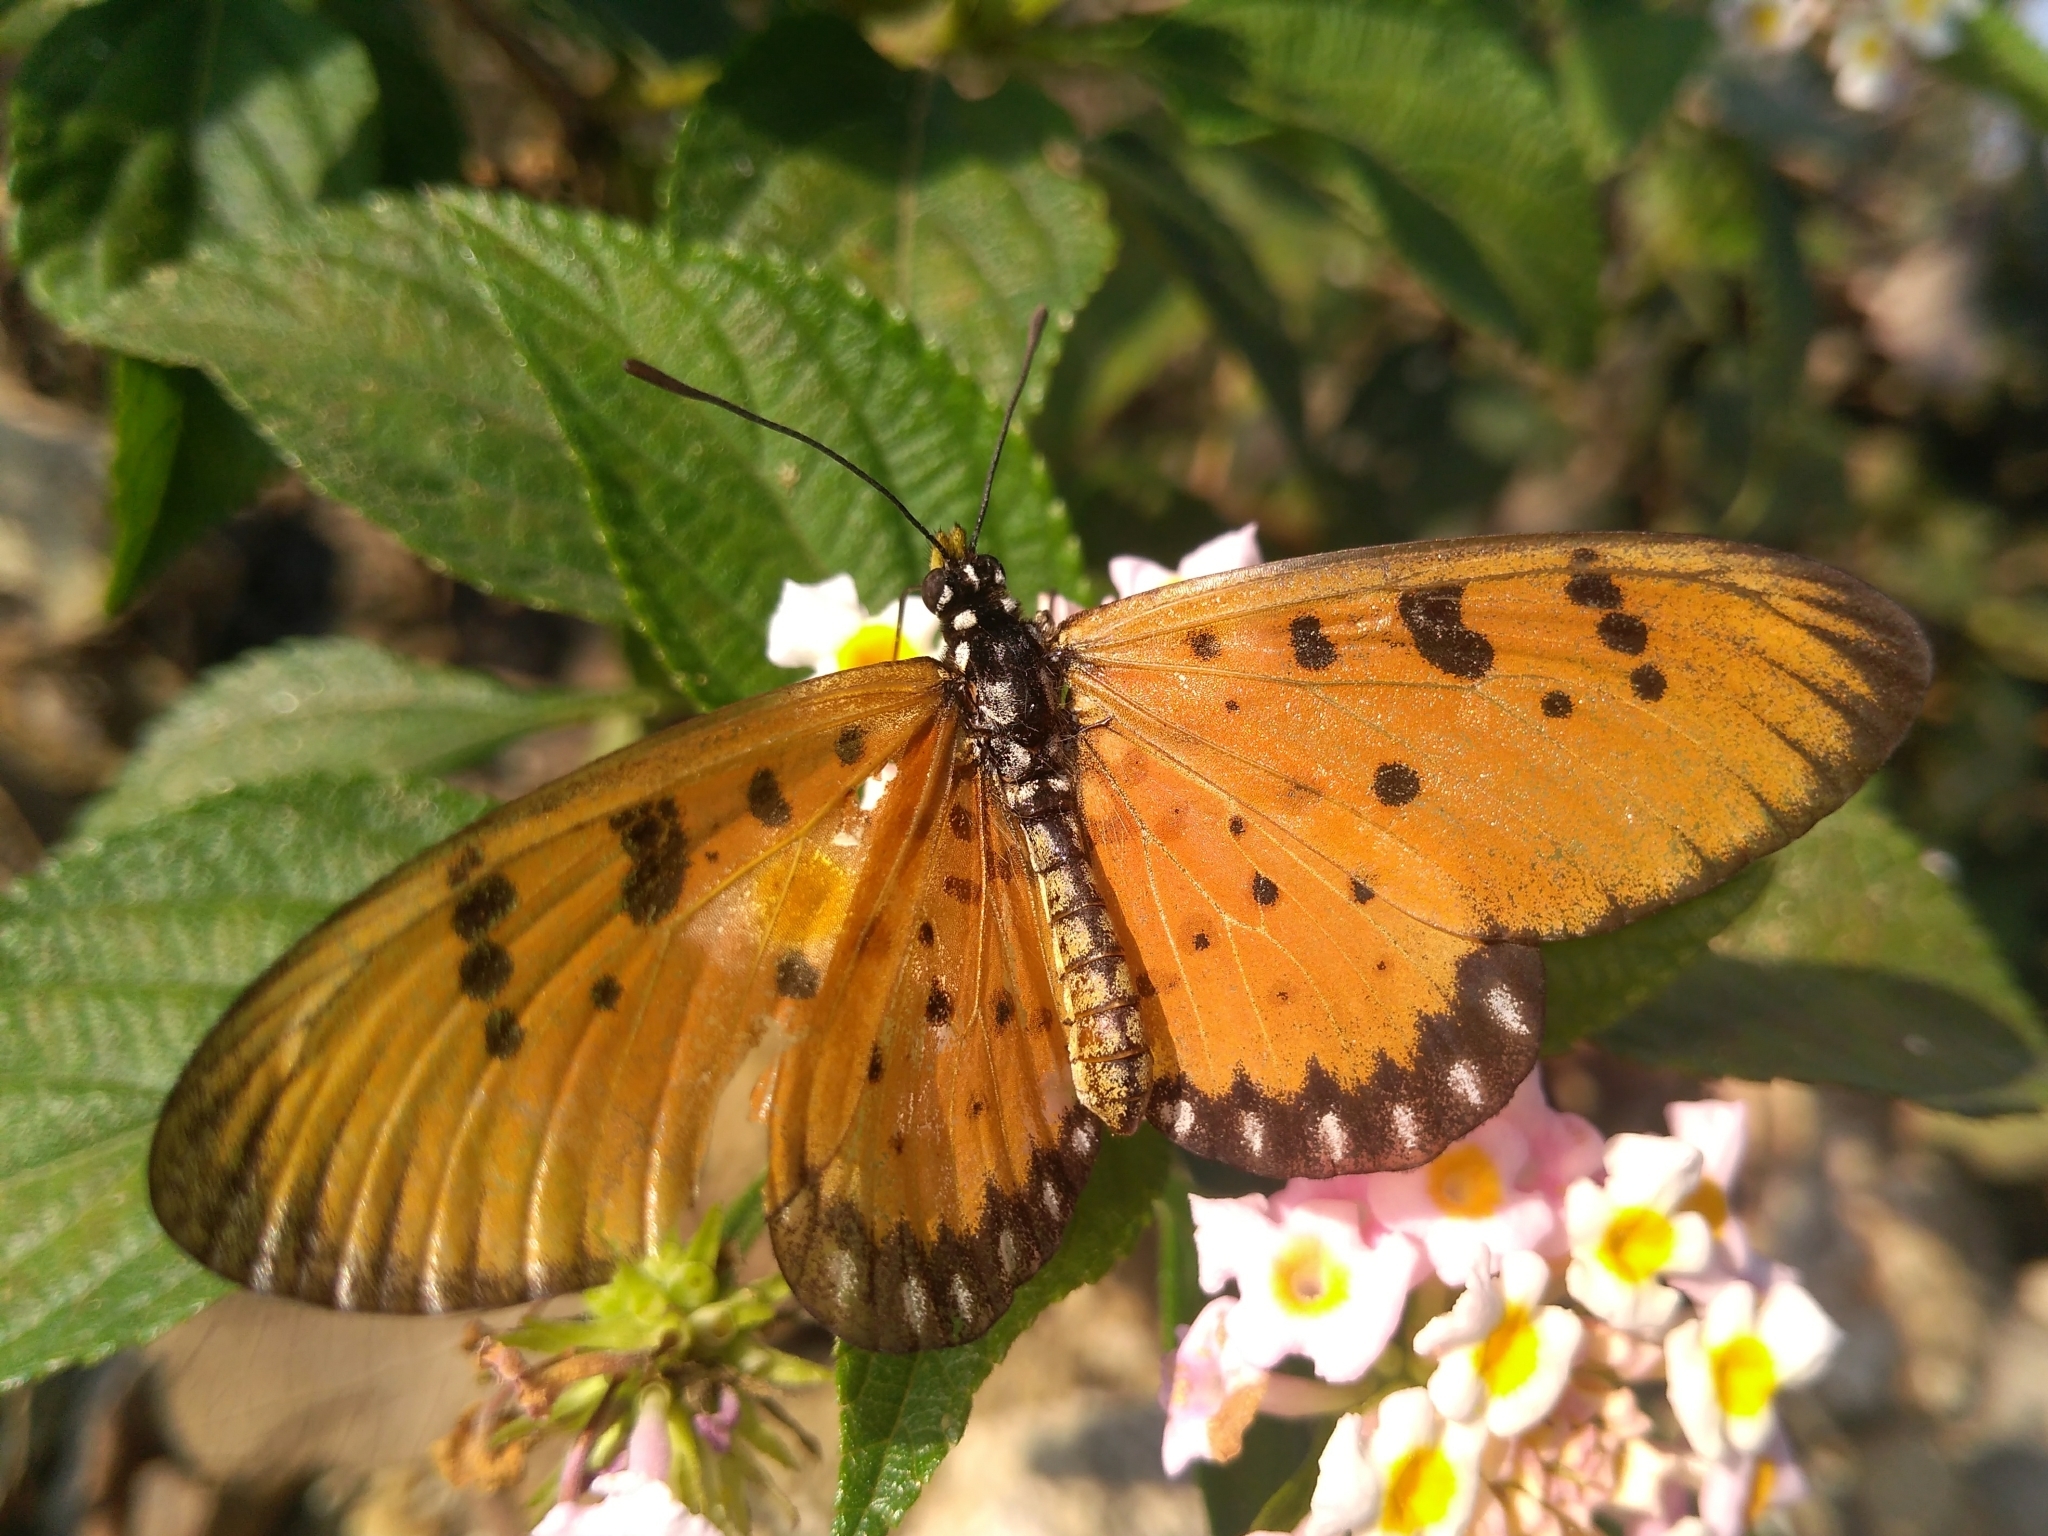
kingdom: Animalia
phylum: Arthropoda
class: Insecta
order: Lepidoptera
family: Nymphalidae
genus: Acraea
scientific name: Acraea terpsicore
